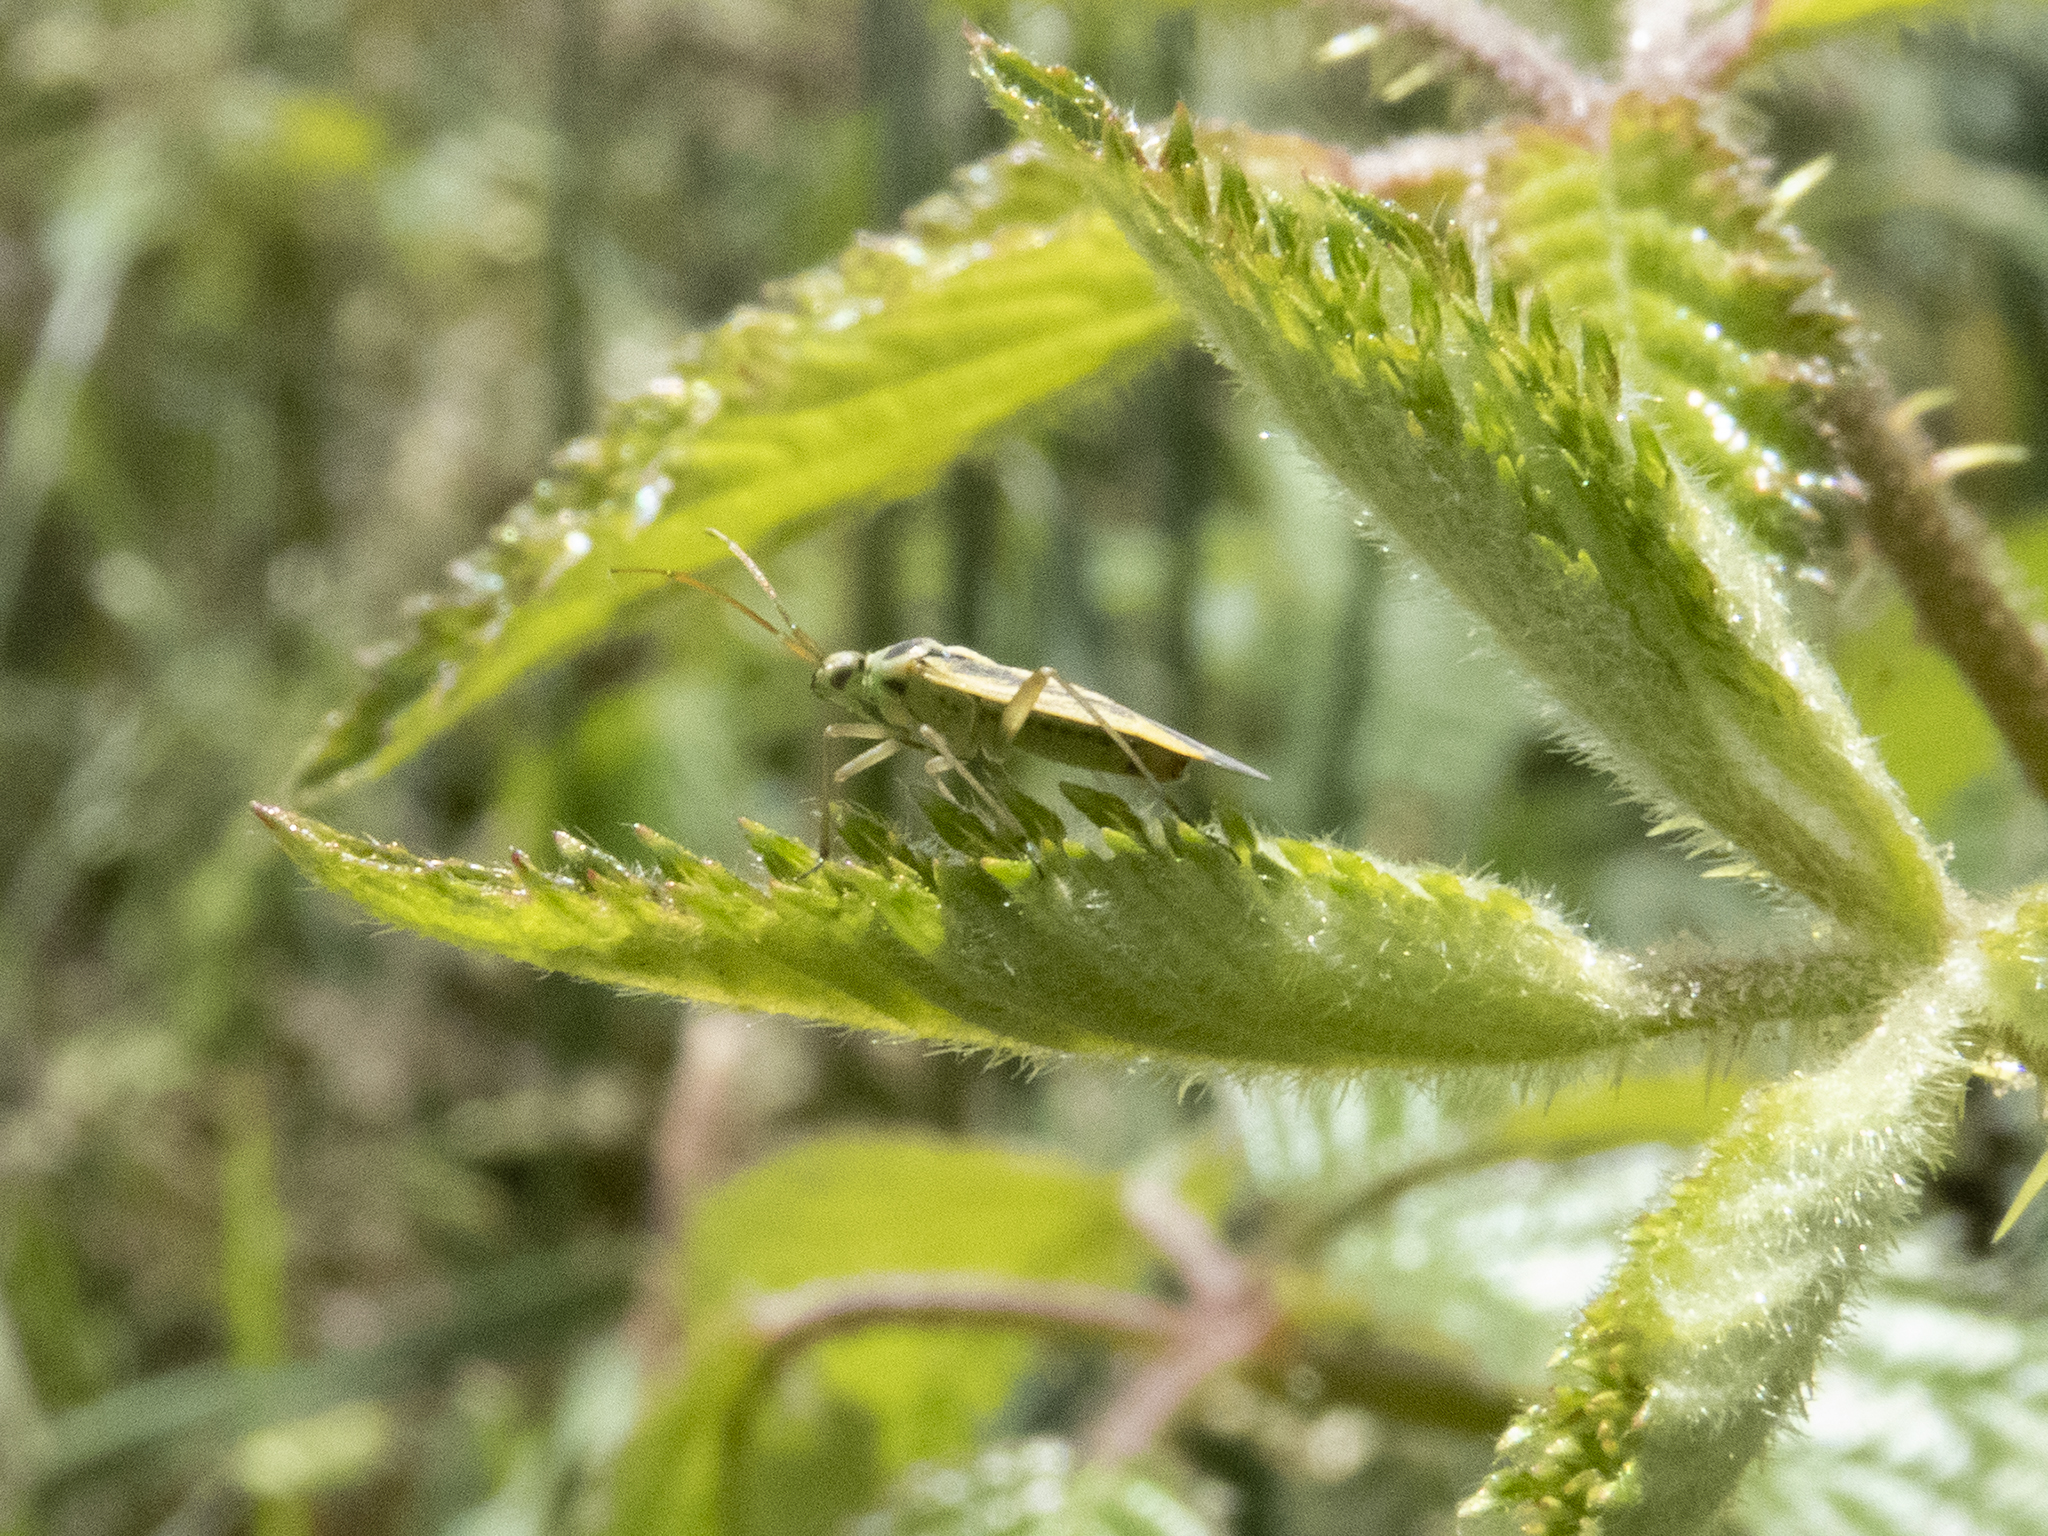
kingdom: Animalia
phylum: Arthropoda
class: Insecta
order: Hemiptera
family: Miridae
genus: Stenotus
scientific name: Stenotus binotatus
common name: Plant bug
